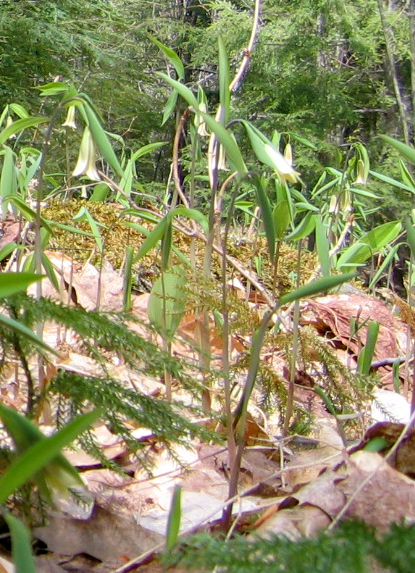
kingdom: Plantae
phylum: Tracheophyta
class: Liliopsida
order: Liliales
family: Colchicaceae
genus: Uvularia
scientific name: Uvularia sessilifolia
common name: Straw-lily
